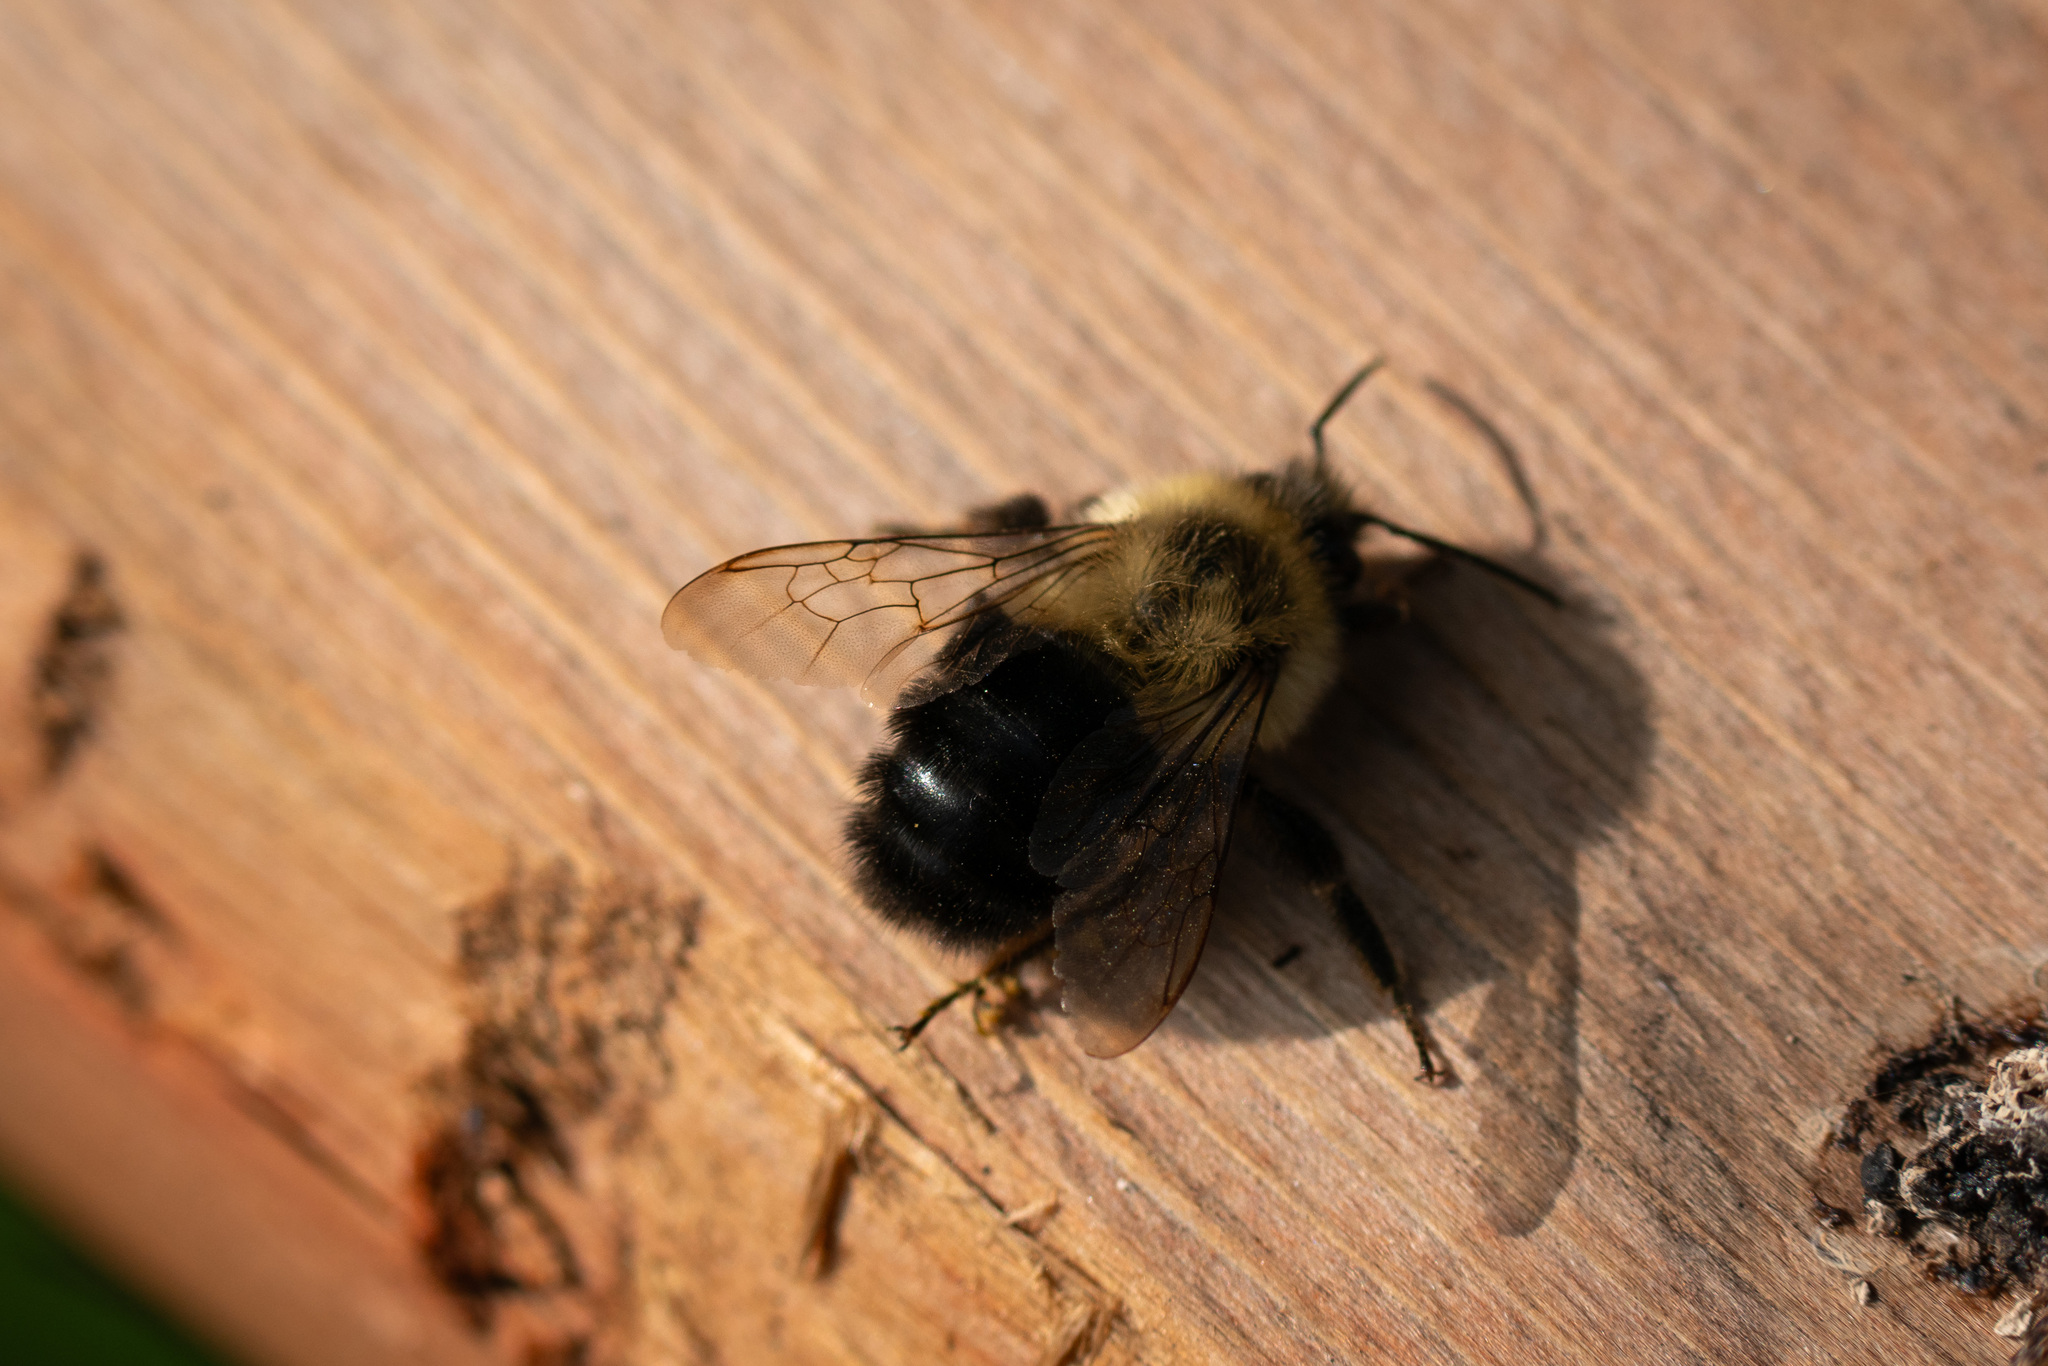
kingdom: Animalia
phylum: Arthropoda
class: Insecta
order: Hymenoptera
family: Apidae
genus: Bombus
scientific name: Bombus impatiens
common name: Common eastern bumble bee
